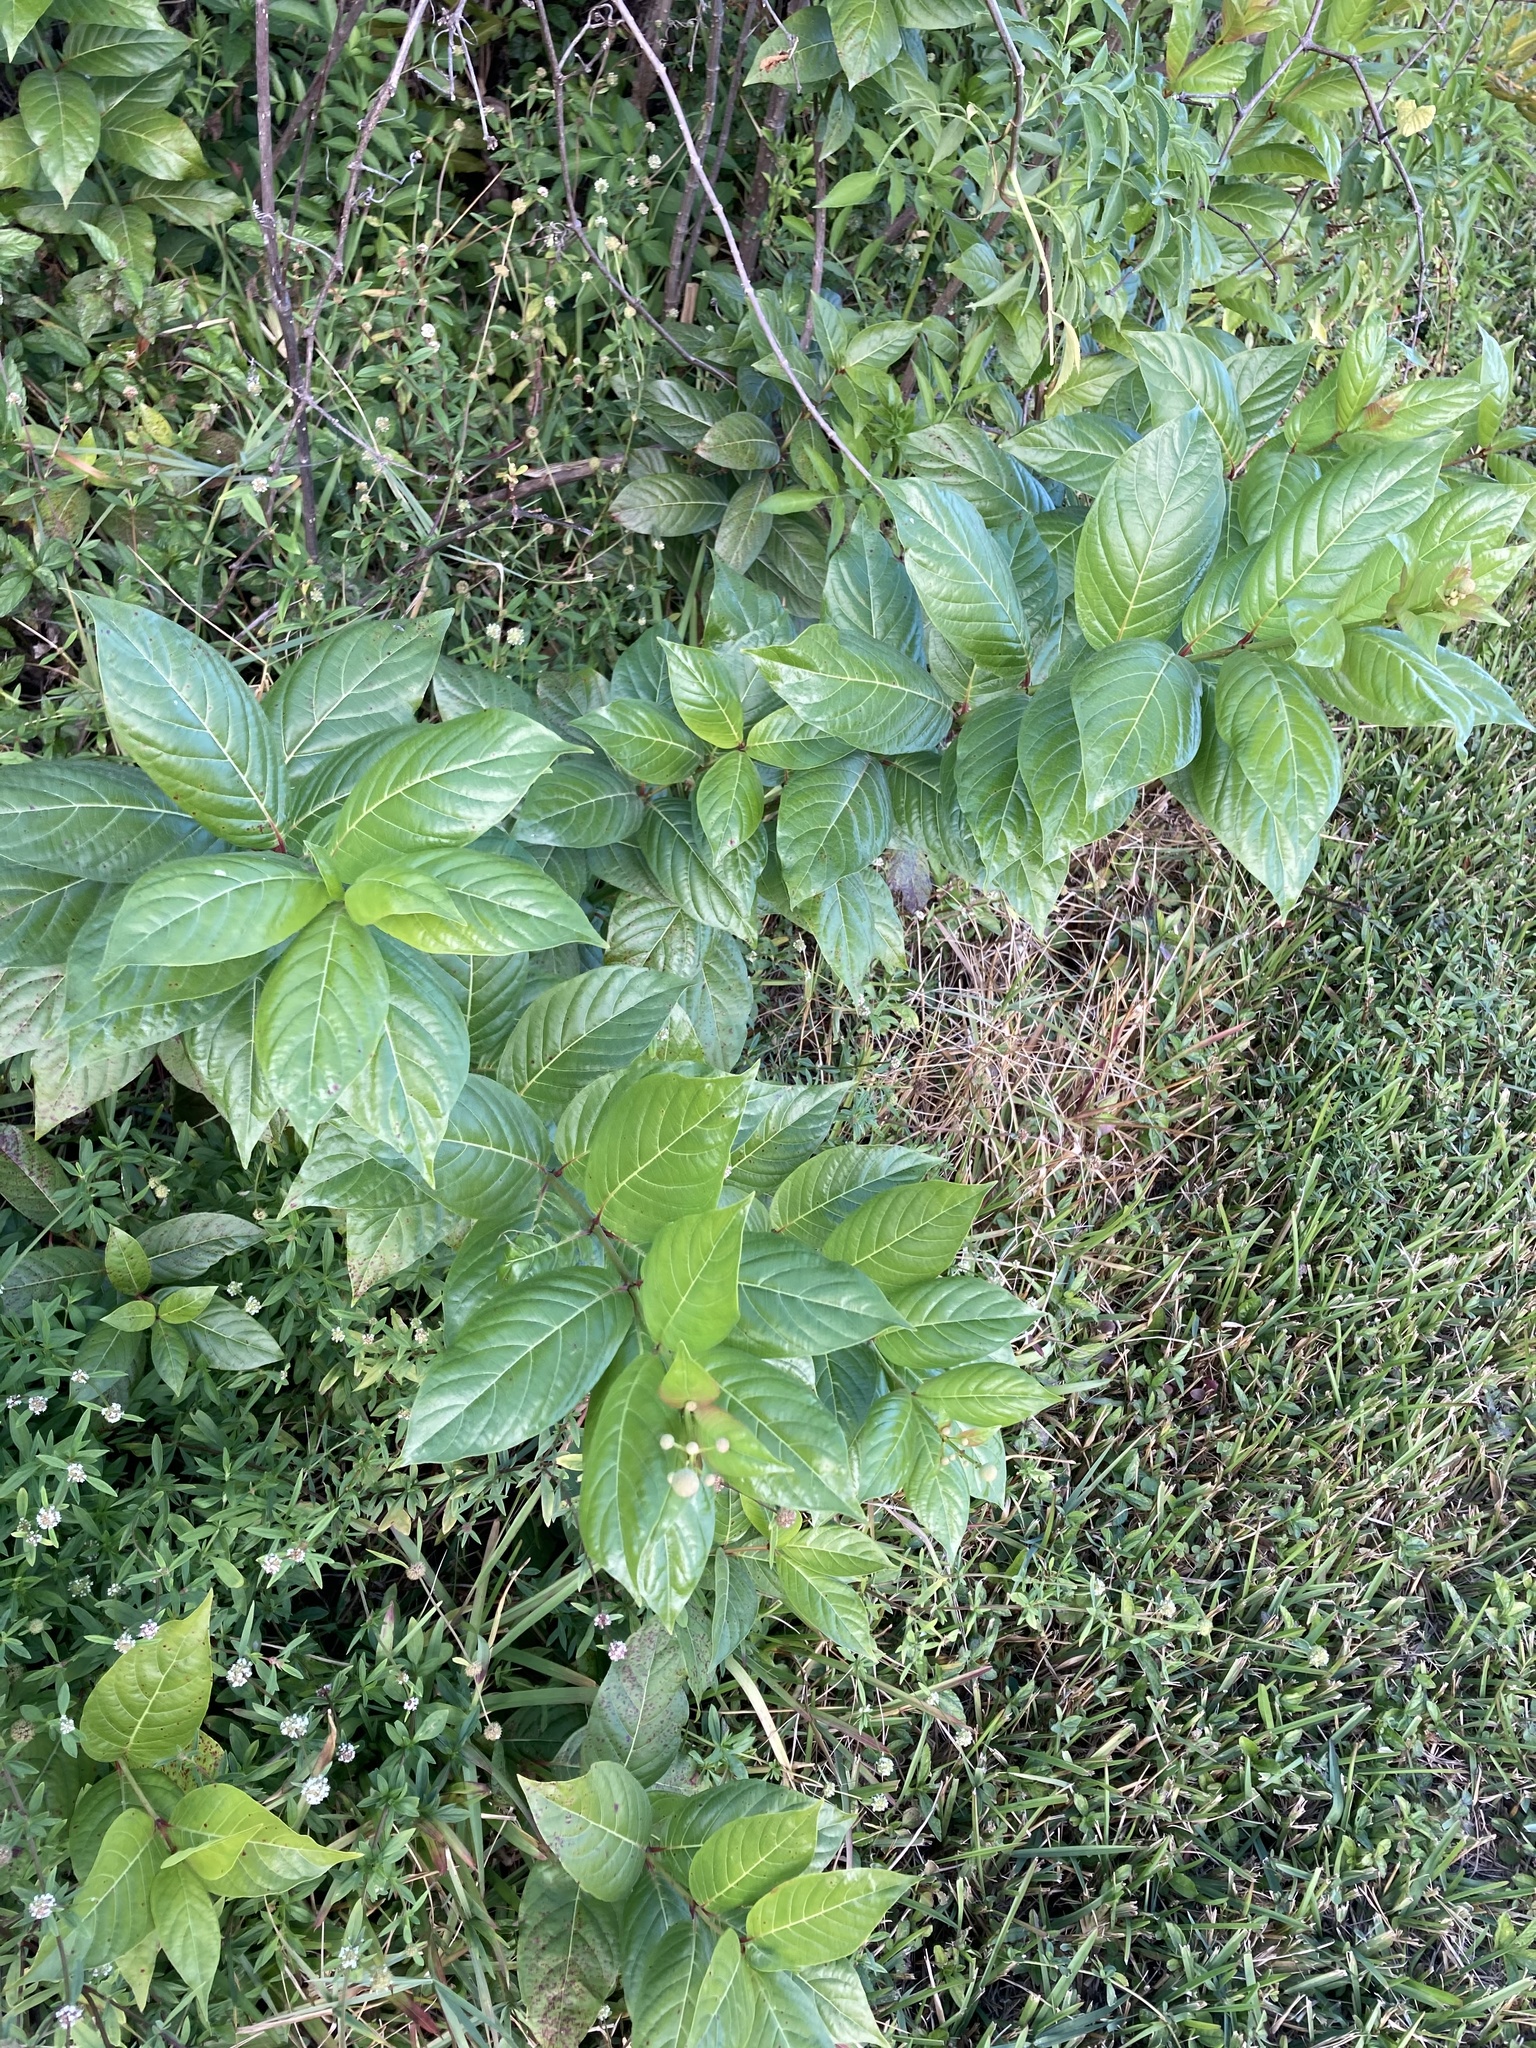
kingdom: Plantae
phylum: Tracheophyta
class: Magnoliopsida
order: Gentianales
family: Rubiaceae
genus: Cephalanthus
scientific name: Cephalanthus occidentalis
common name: Button-willow
